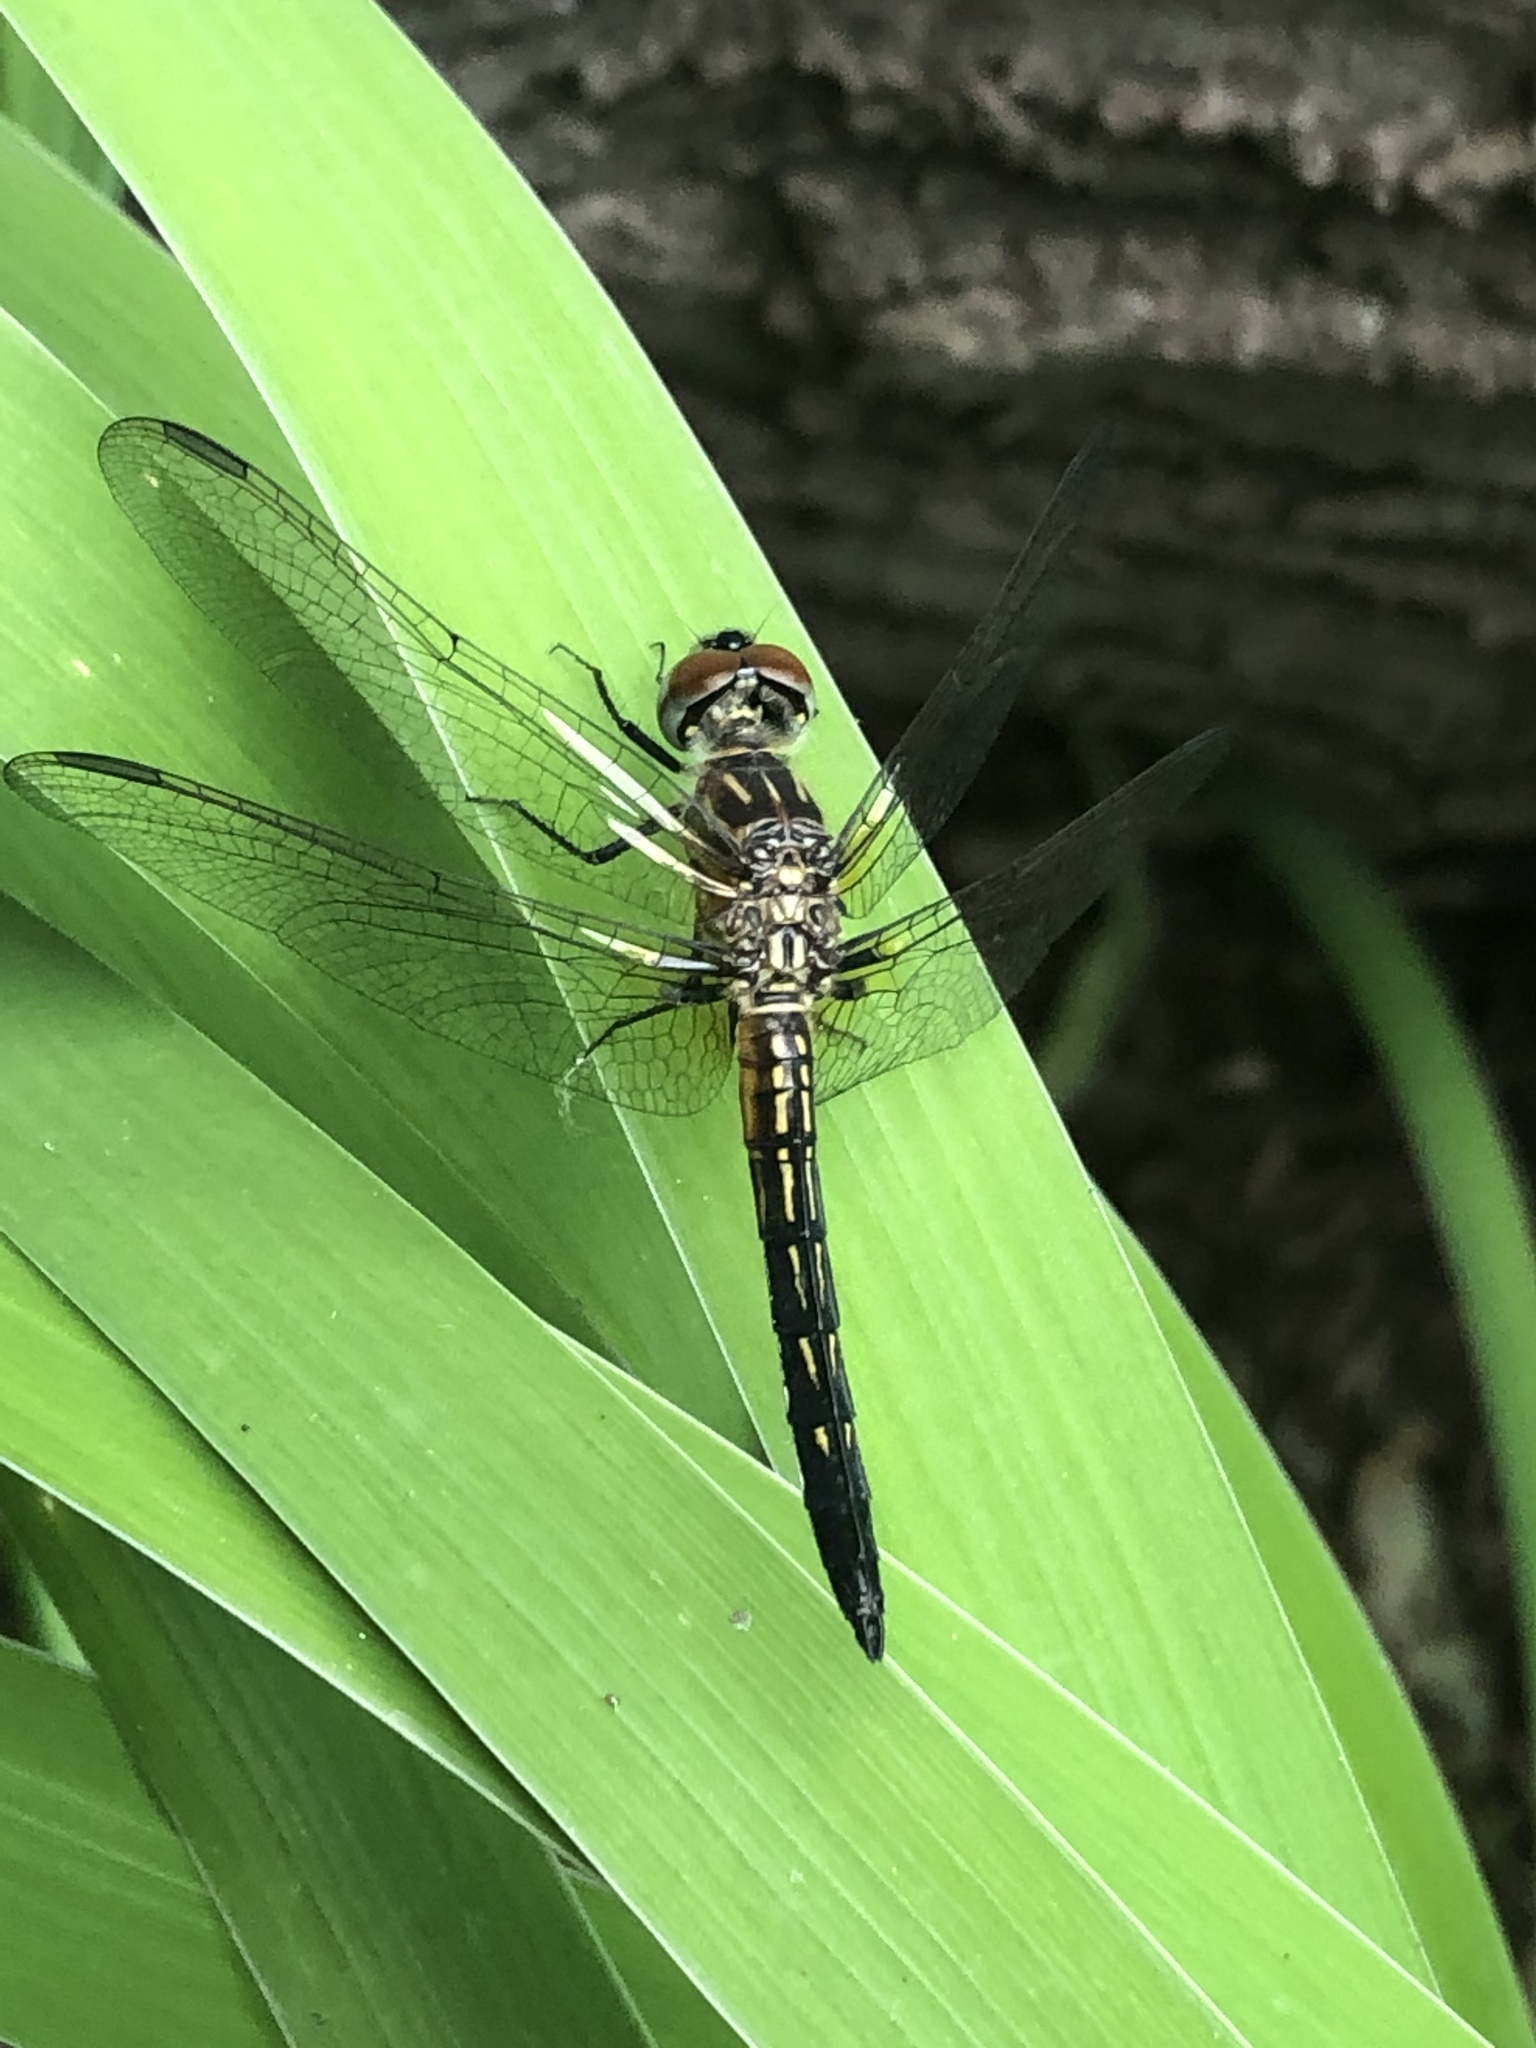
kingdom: Animalia
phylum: Arthropoda
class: Insecta
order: Odonata
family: Libellulidae
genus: Pachydiplax
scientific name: Pachydiplax longipennis
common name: Blue dasher
